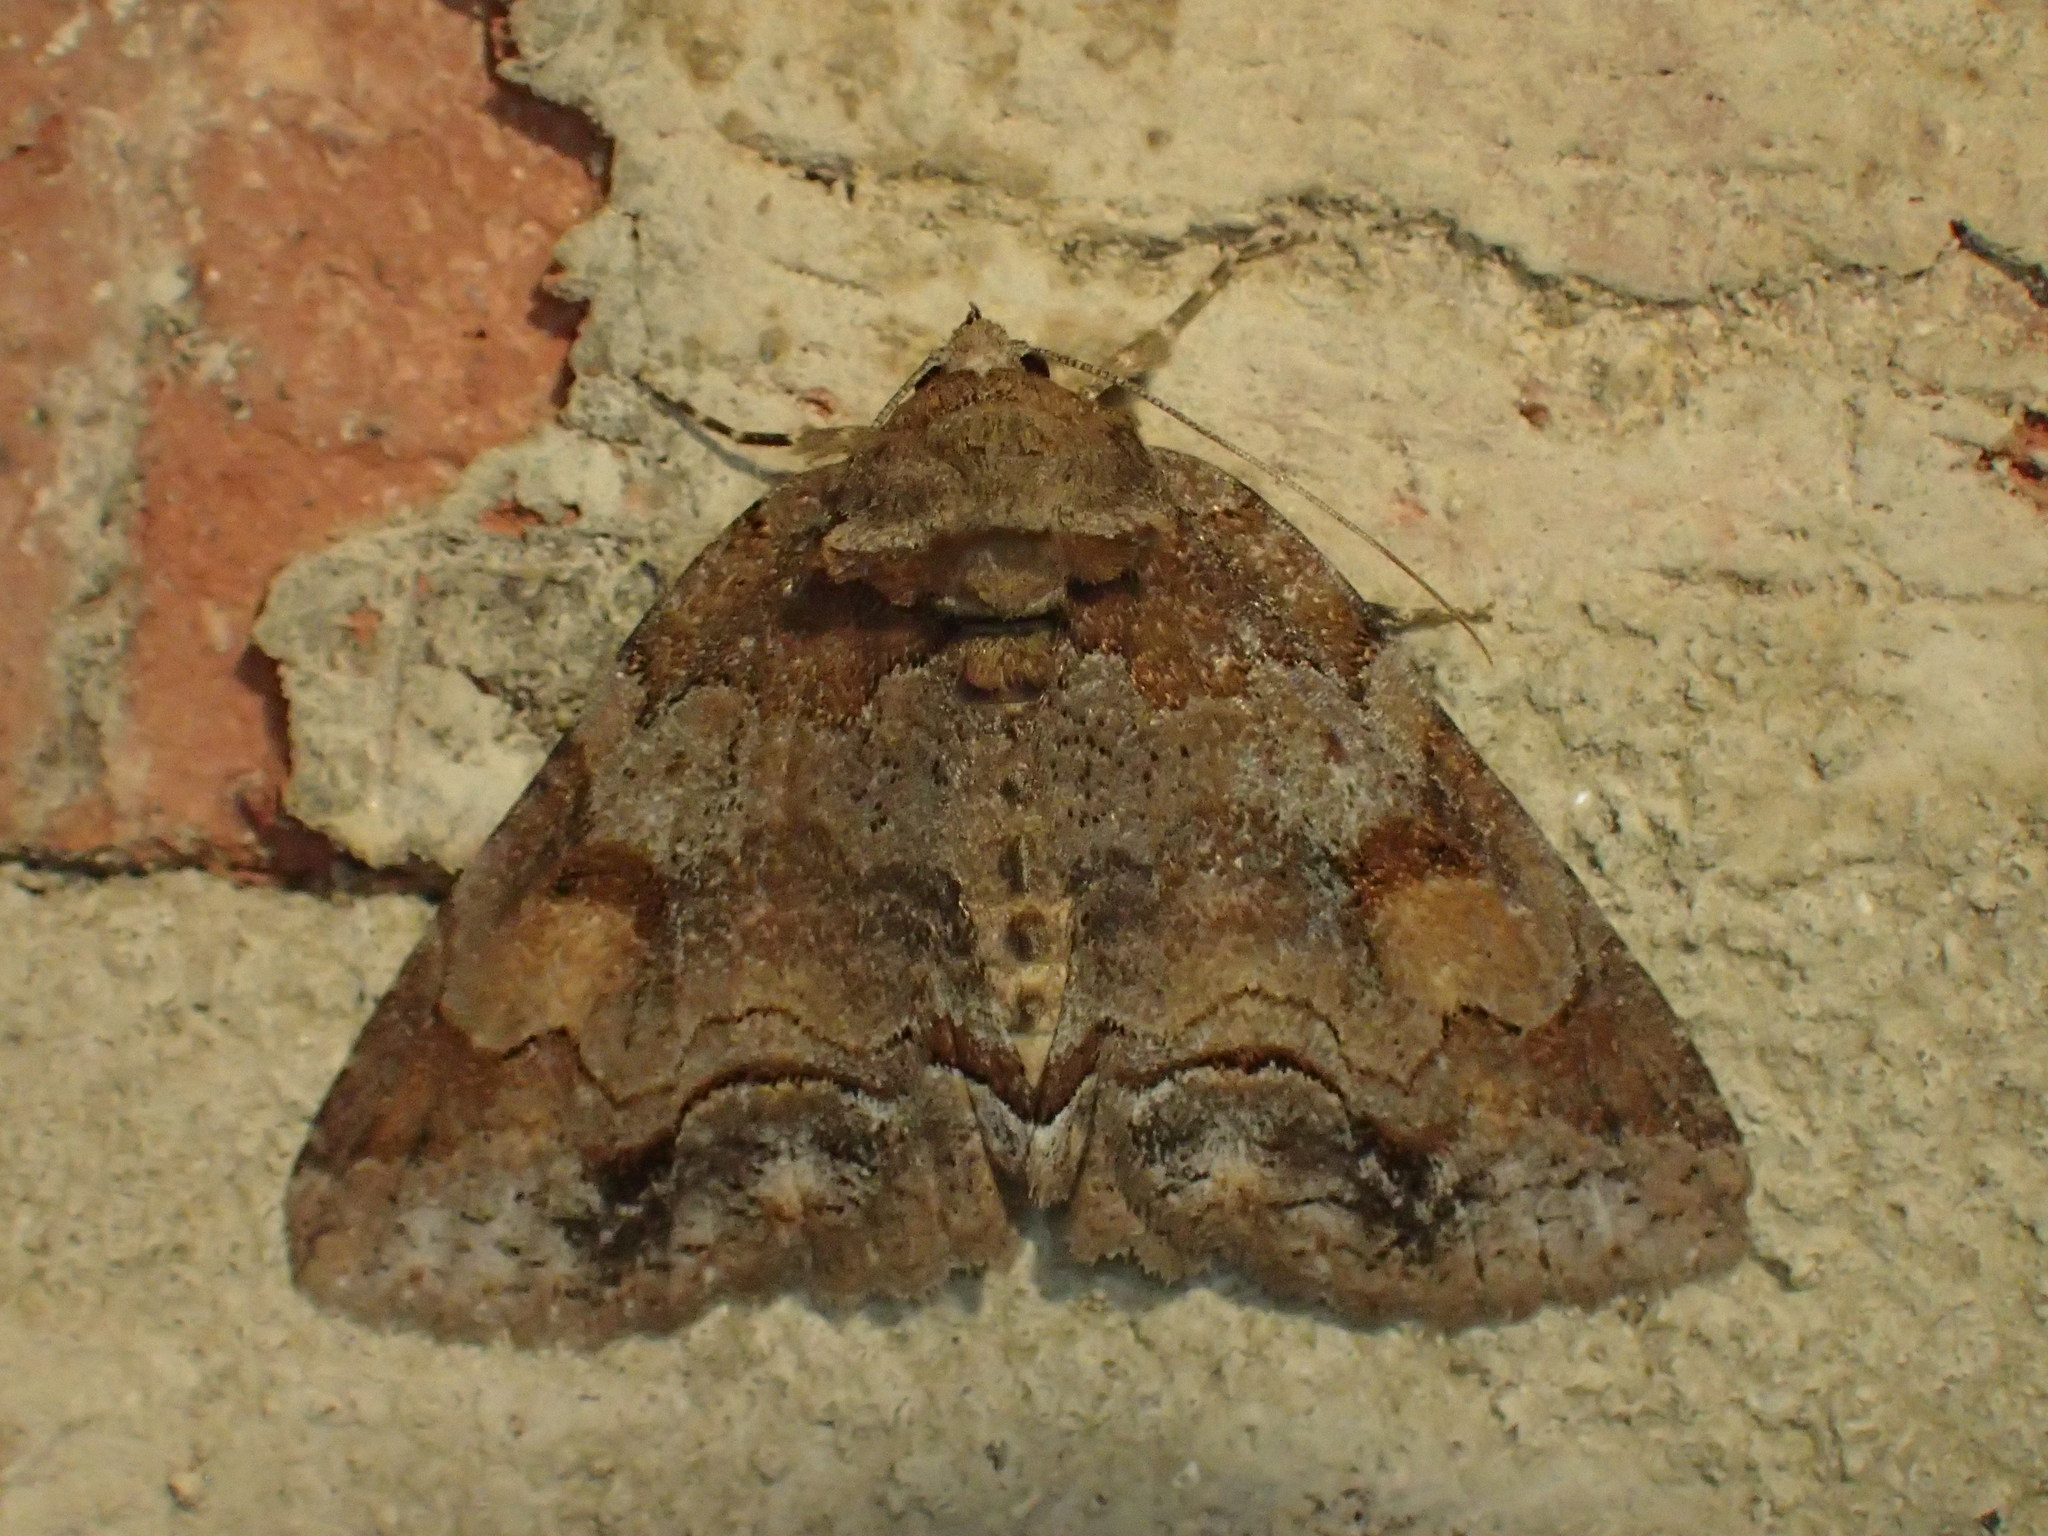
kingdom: Animalia
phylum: Arthropoda
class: Insecta
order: Lepidoptera
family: Erebidae
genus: Zale
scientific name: Zale metatoides
